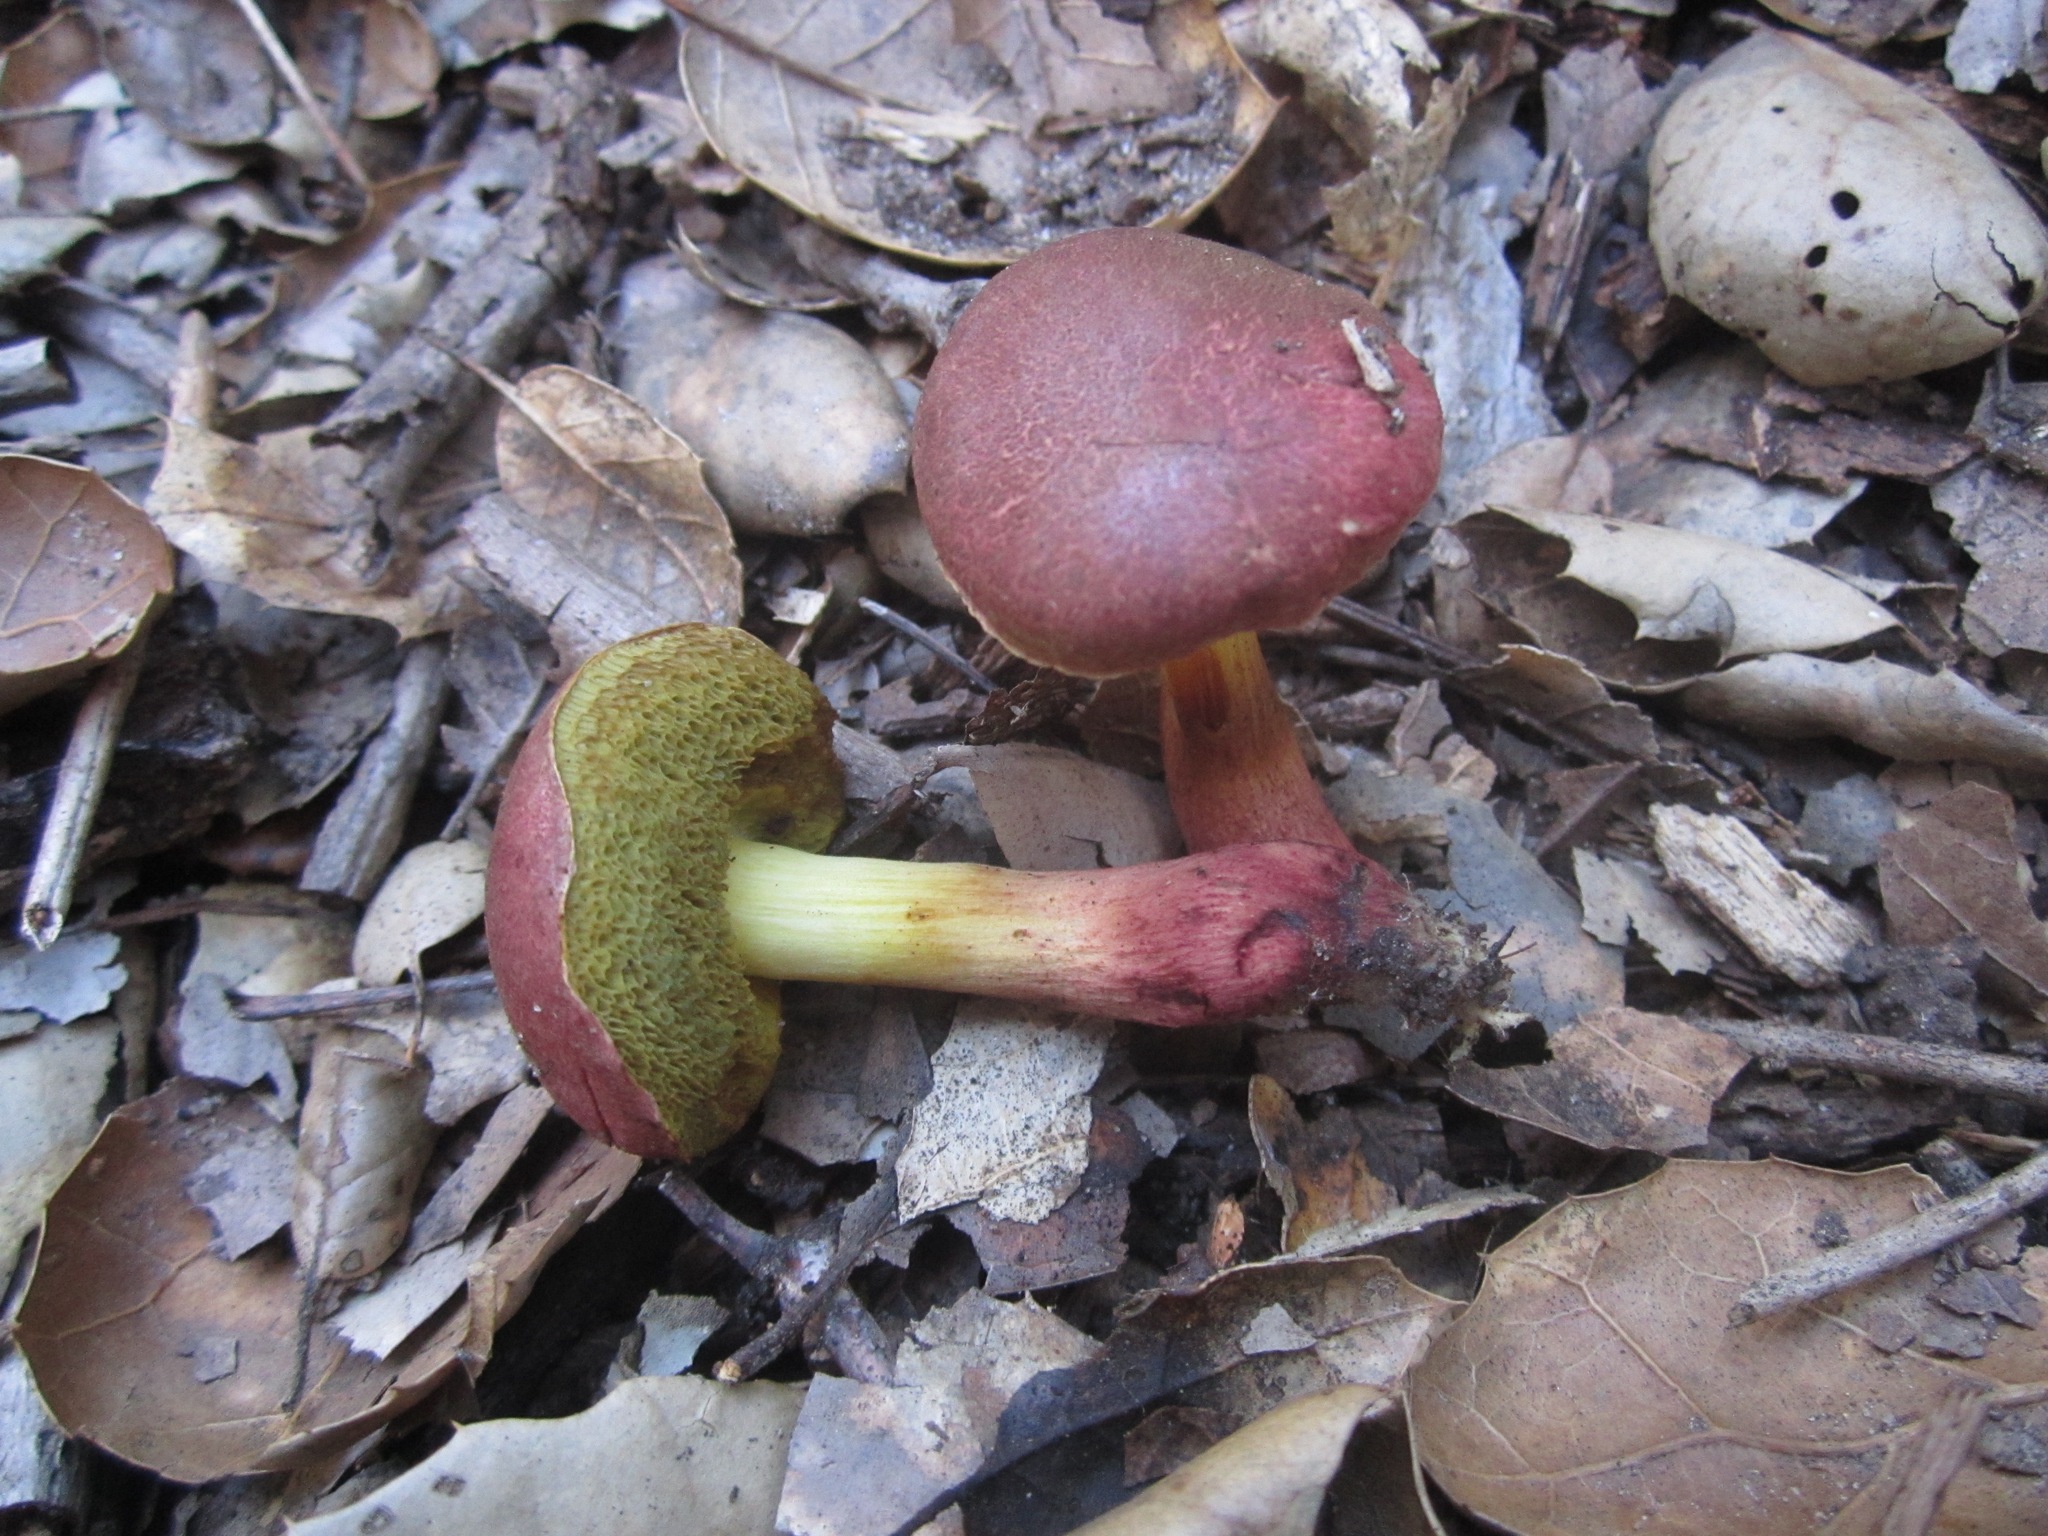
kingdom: Fungi
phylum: Basidiomycota
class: Agaricomycetes
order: Boletales
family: Boletaceae
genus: Xerocomellus
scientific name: Xerocomellus dryophilus
